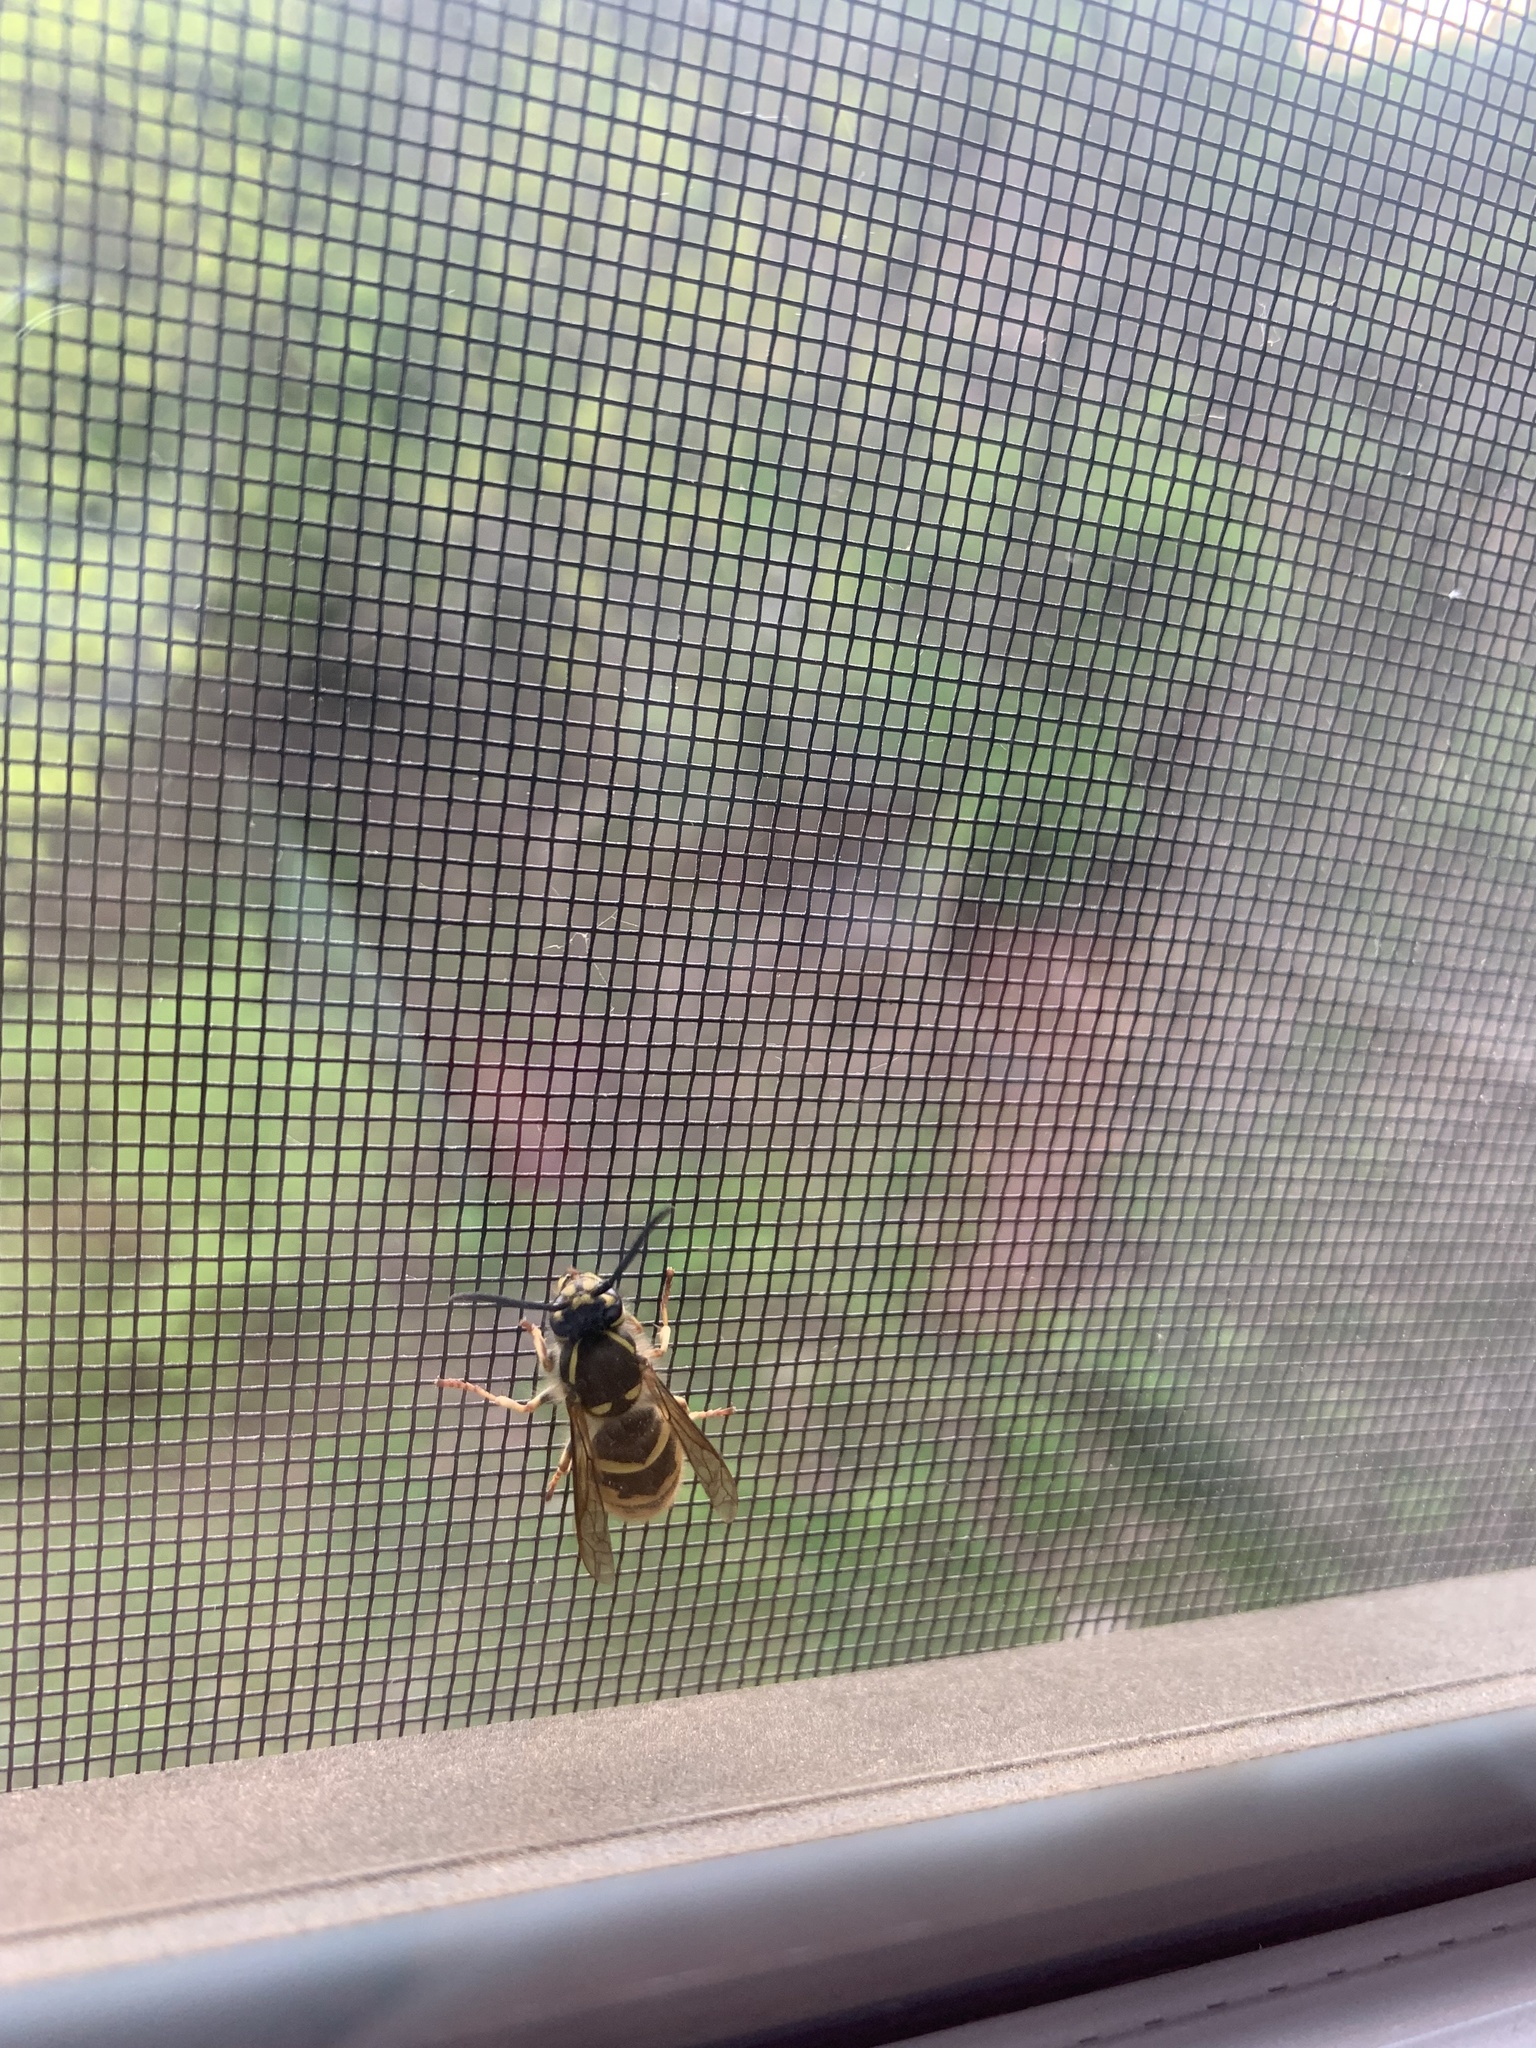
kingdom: Animalia
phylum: Arthropoda
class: Insecta
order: Hymenoptera
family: Vespidae
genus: Vespula
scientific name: Vespula vulgaris
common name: Common wasp
